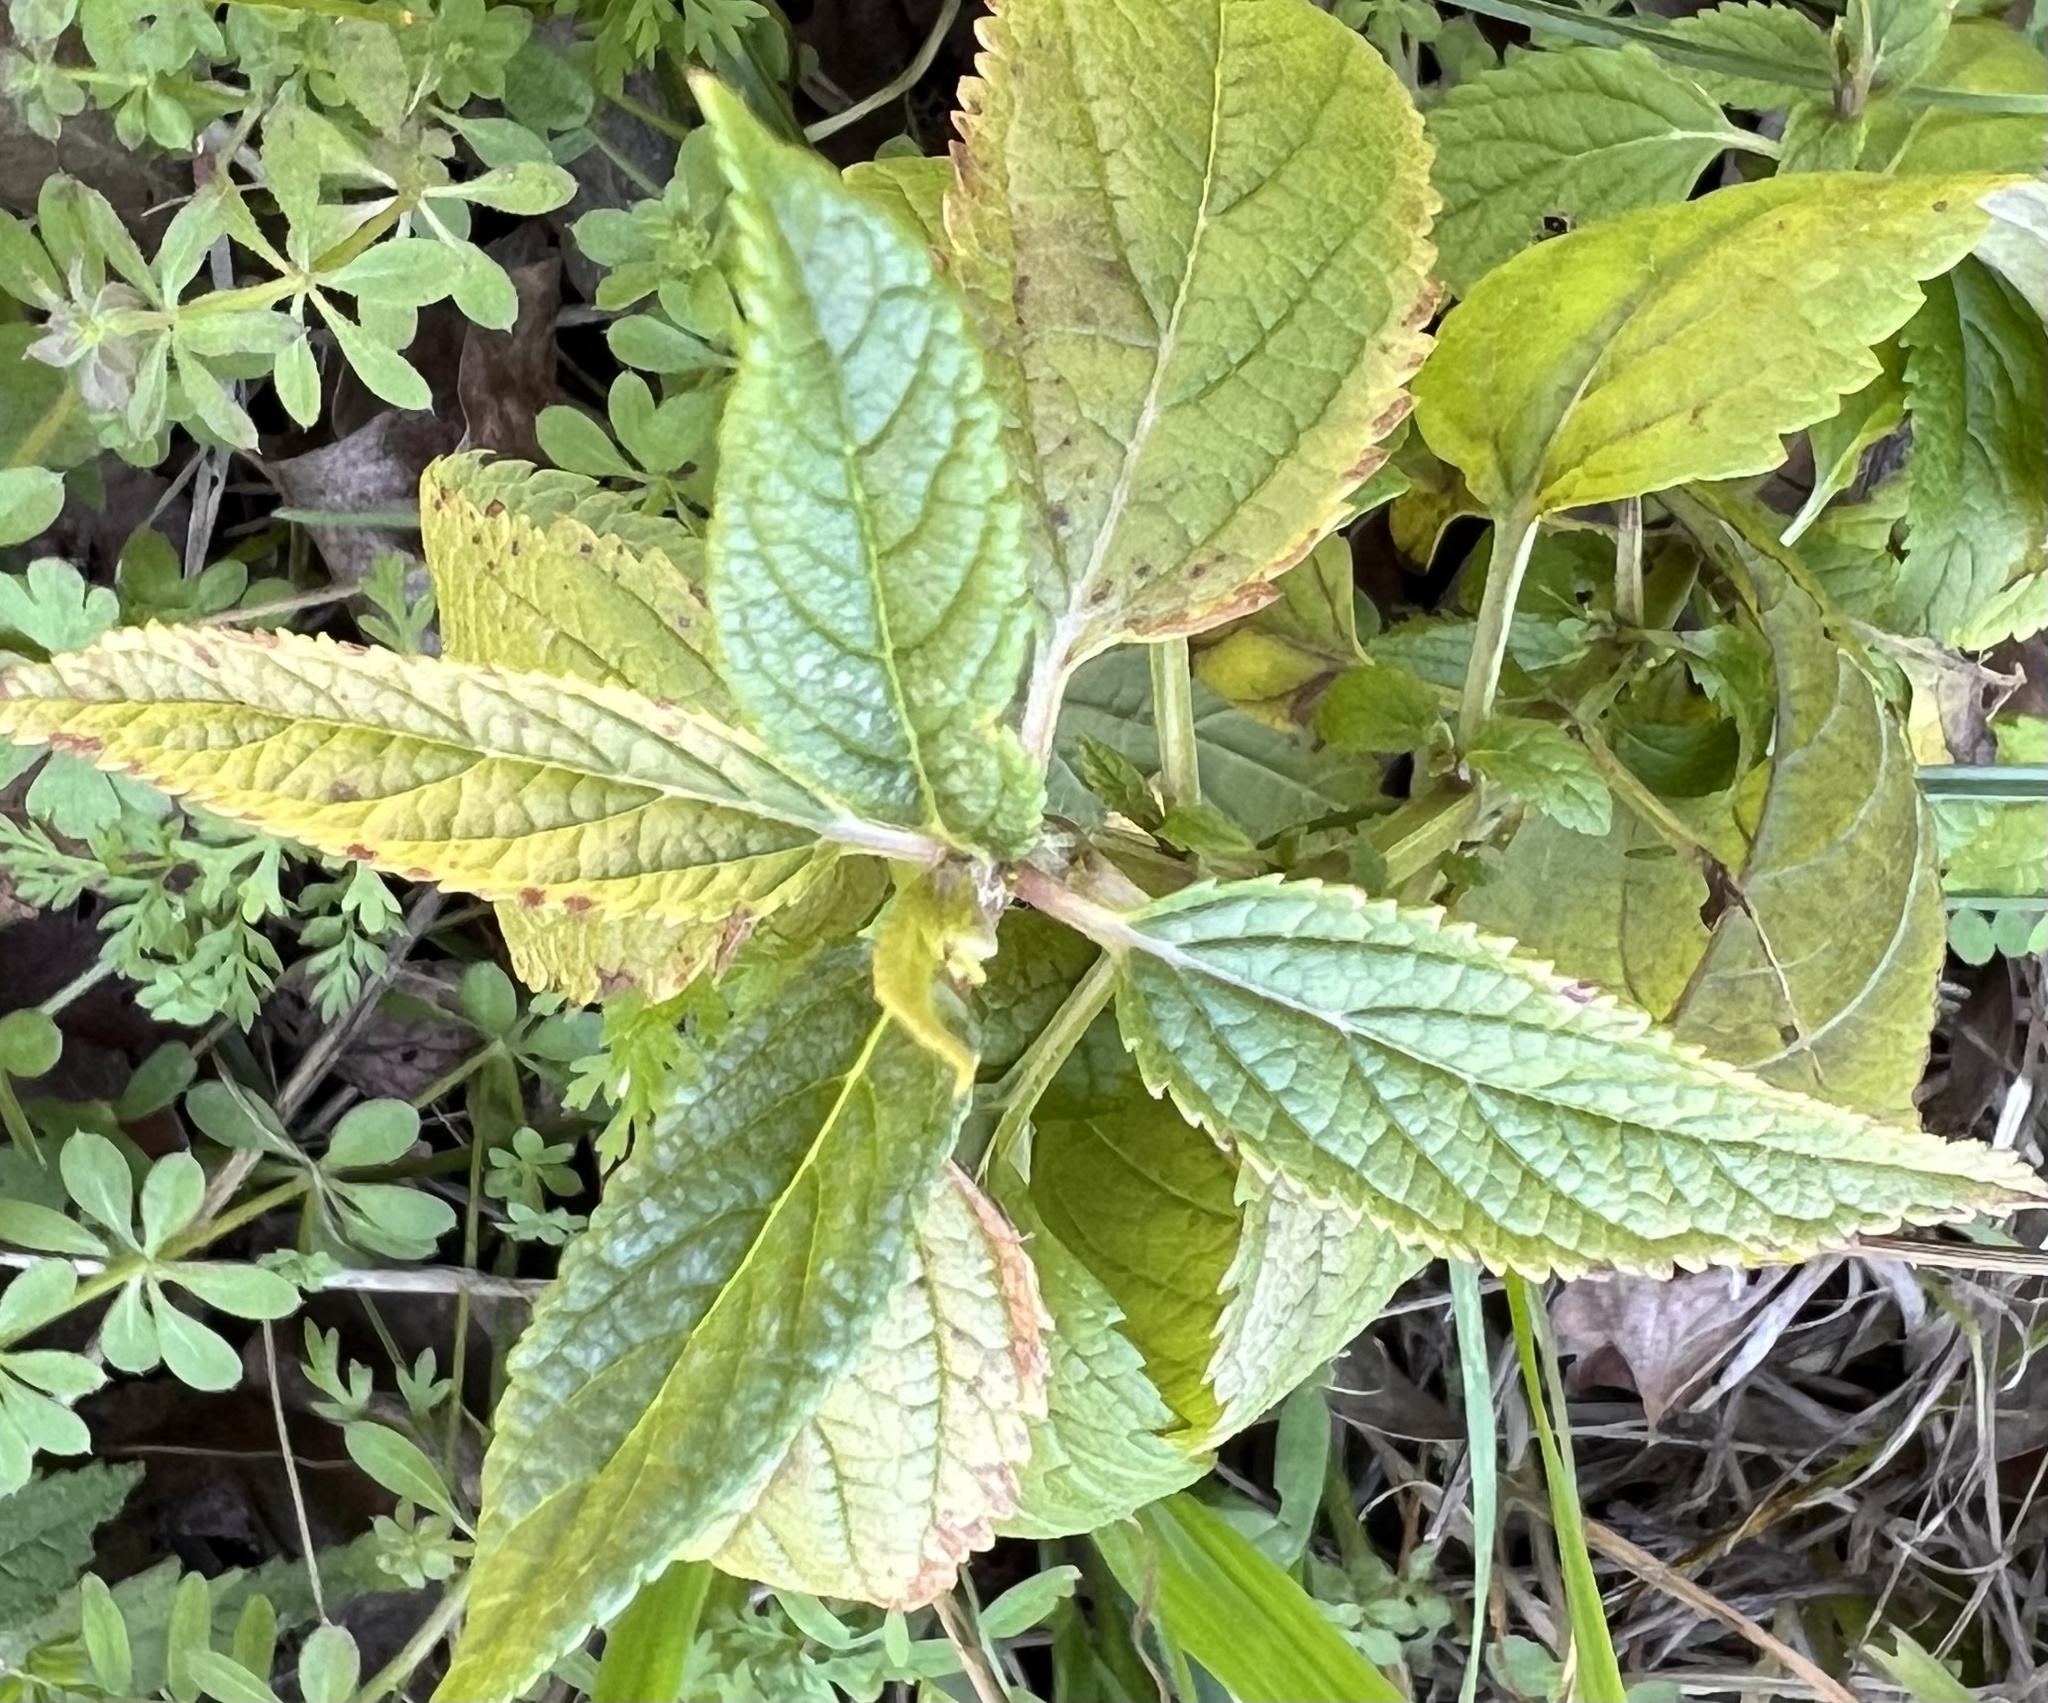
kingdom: Plantae
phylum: Tracheophyta
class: Magnoliopsida
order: Lamiales
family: Lamiaceae
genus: Teucrium
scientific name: Teucrium canadense
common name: American germander
